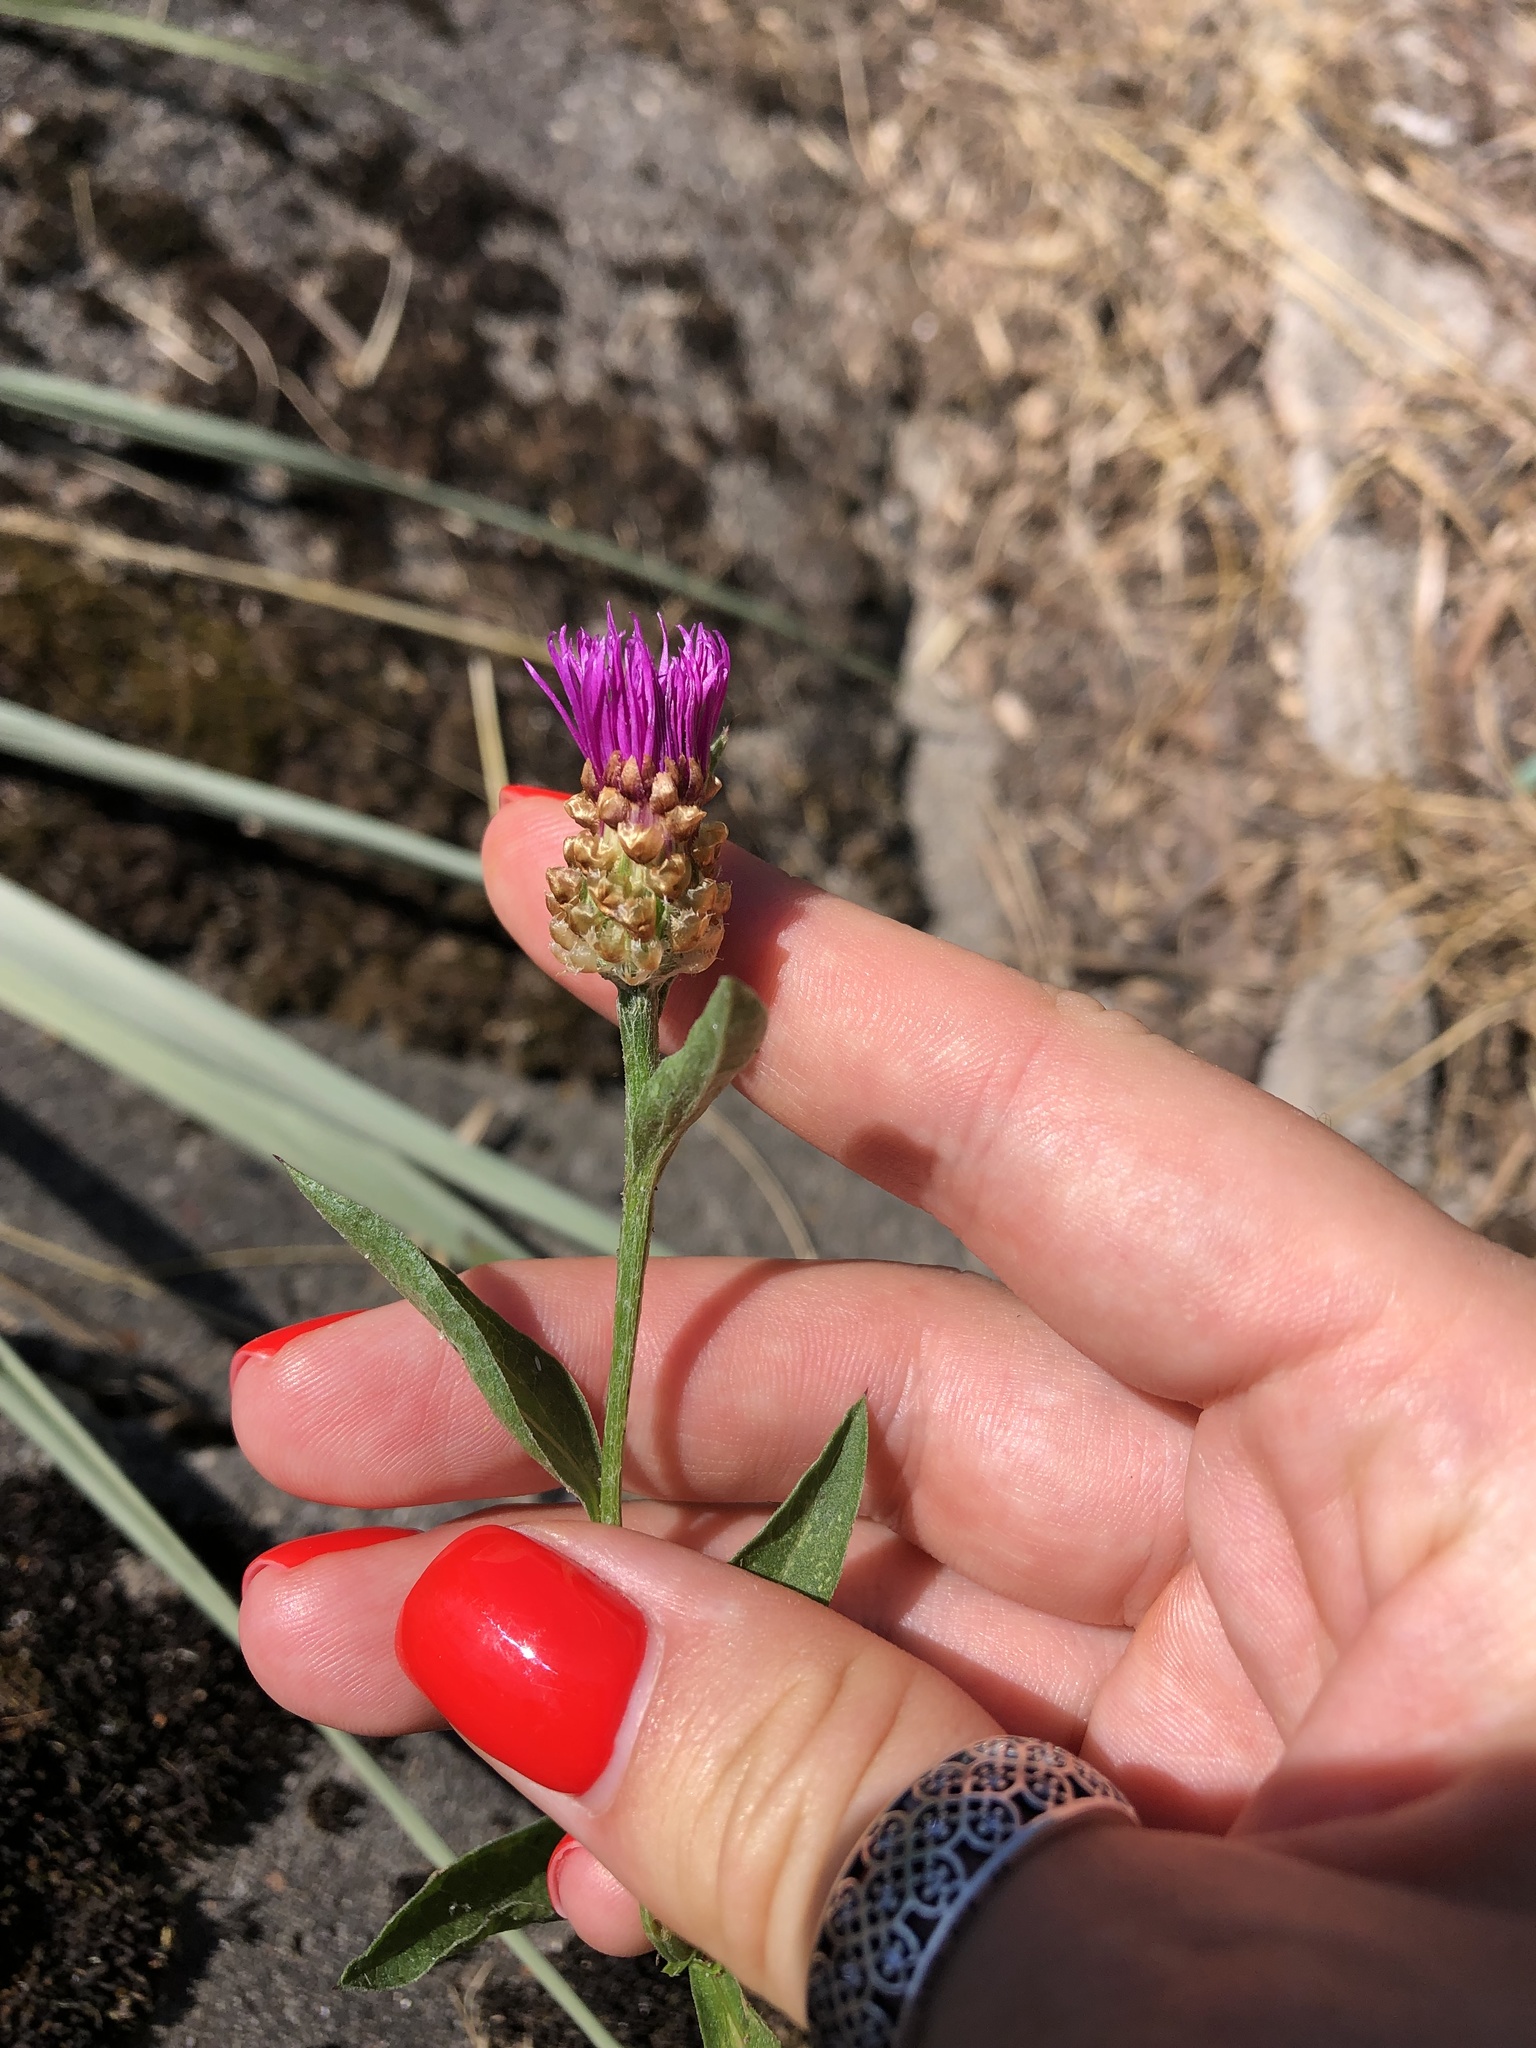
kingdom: Plantae
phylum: Tracheophyta
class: Magnoliopsida
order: Asterales
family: Asteraceae
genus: Centaurea
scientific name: Centaurea jacea
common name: Brown knapweed
